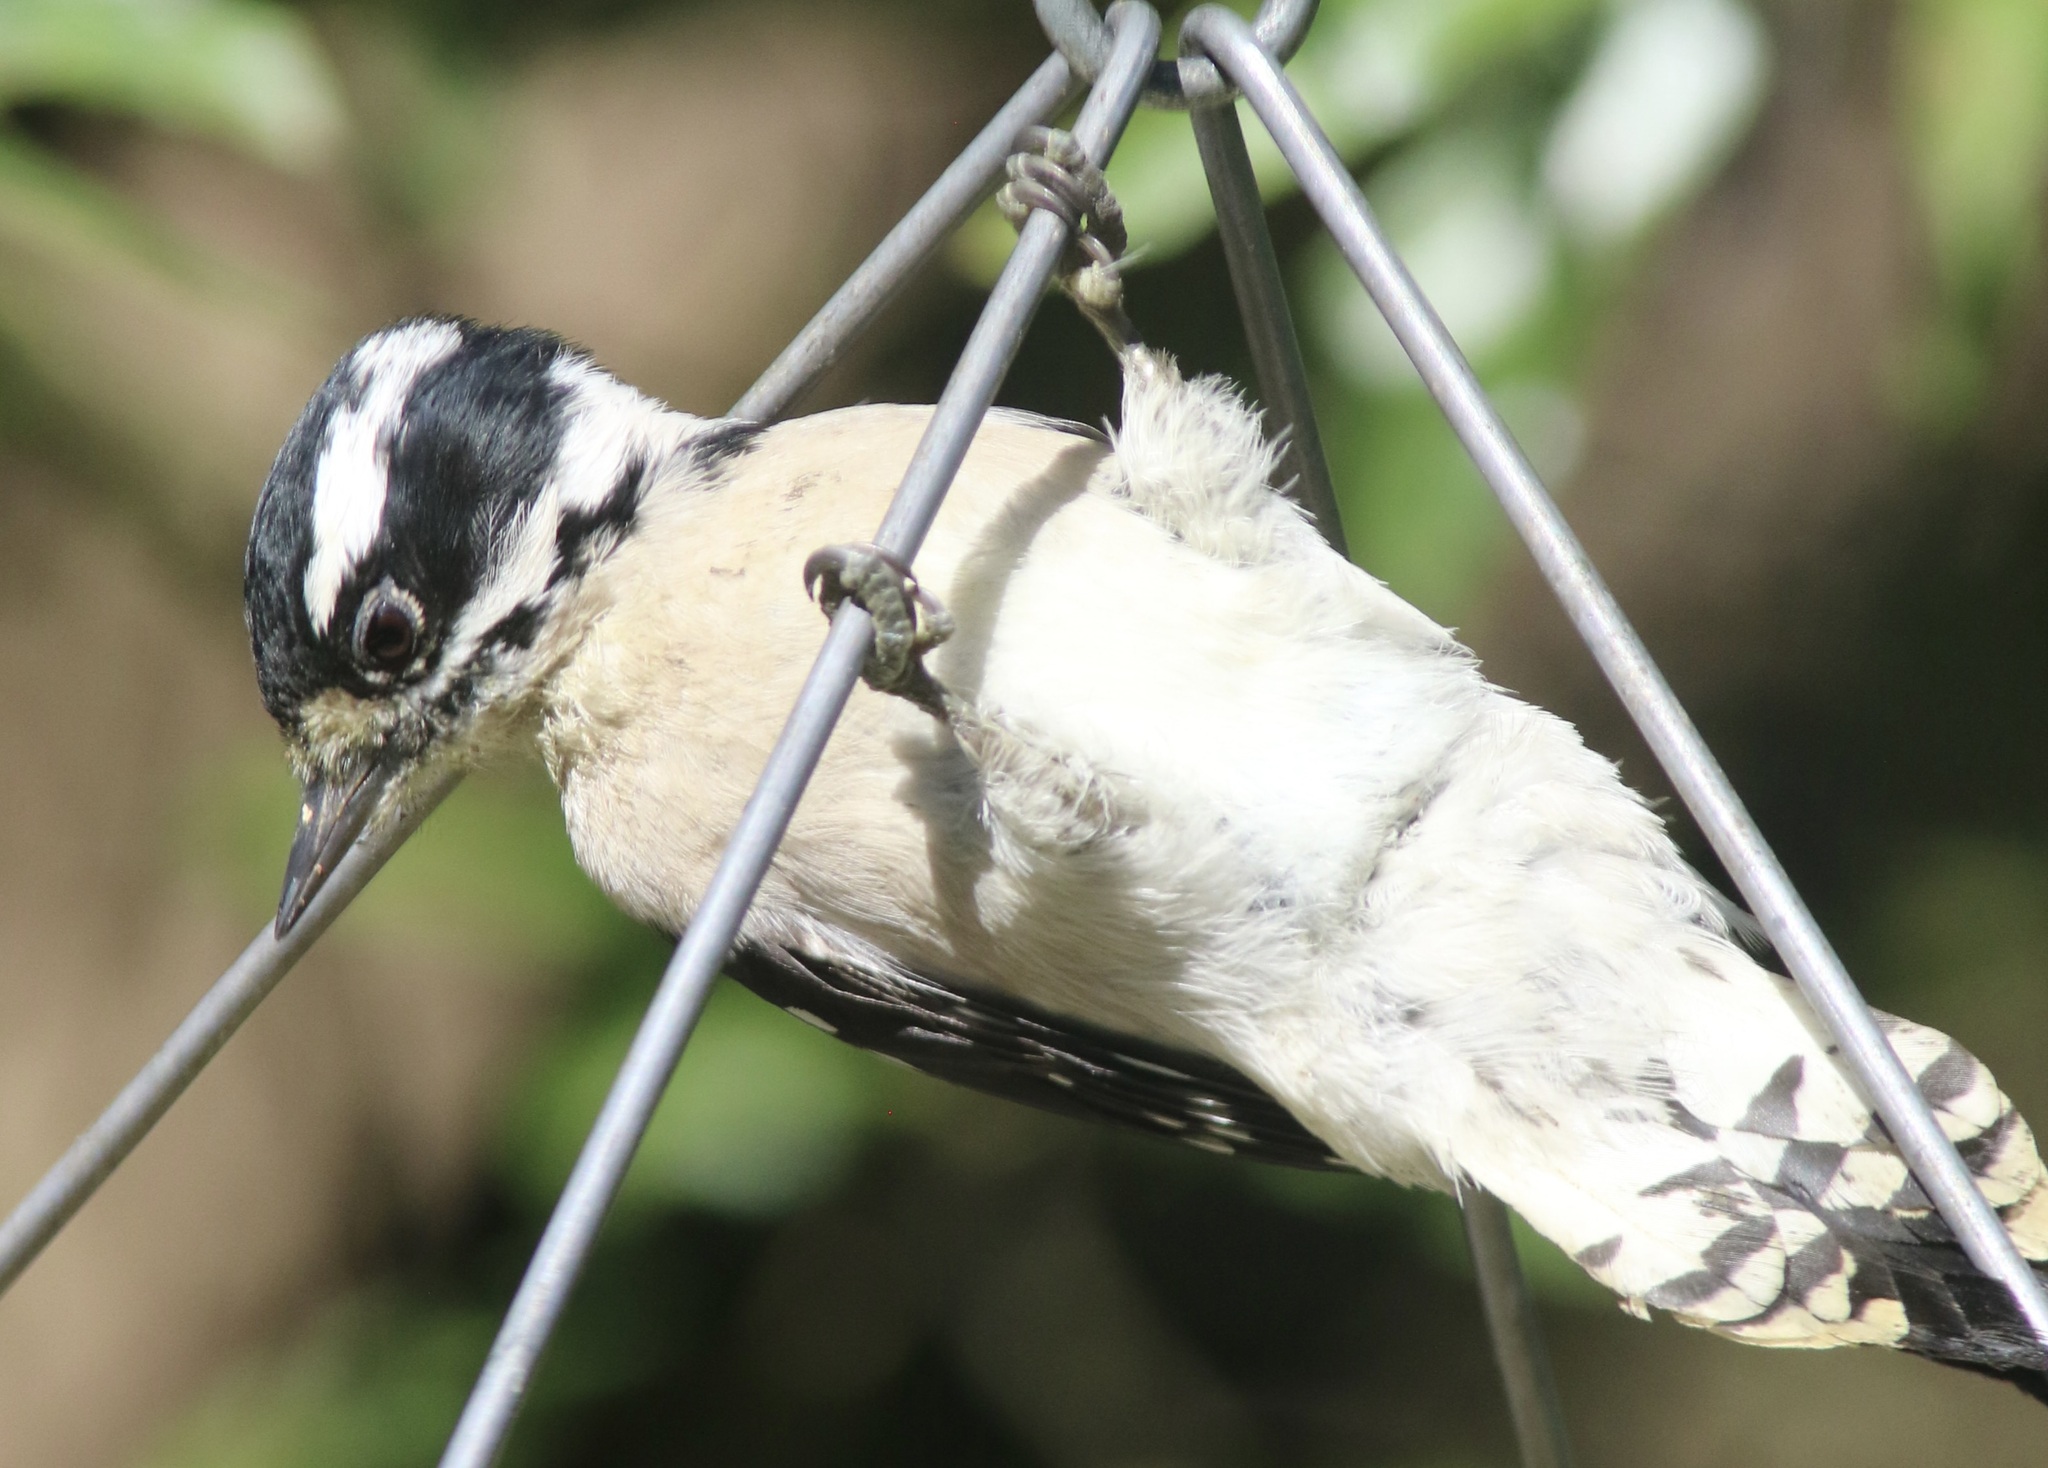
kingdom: Animalia
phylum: Chordata
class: Aves
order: Piciformes
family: Picidae
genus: Dryobates
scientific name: Dryobates pubescens
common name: Downy woodpecker
